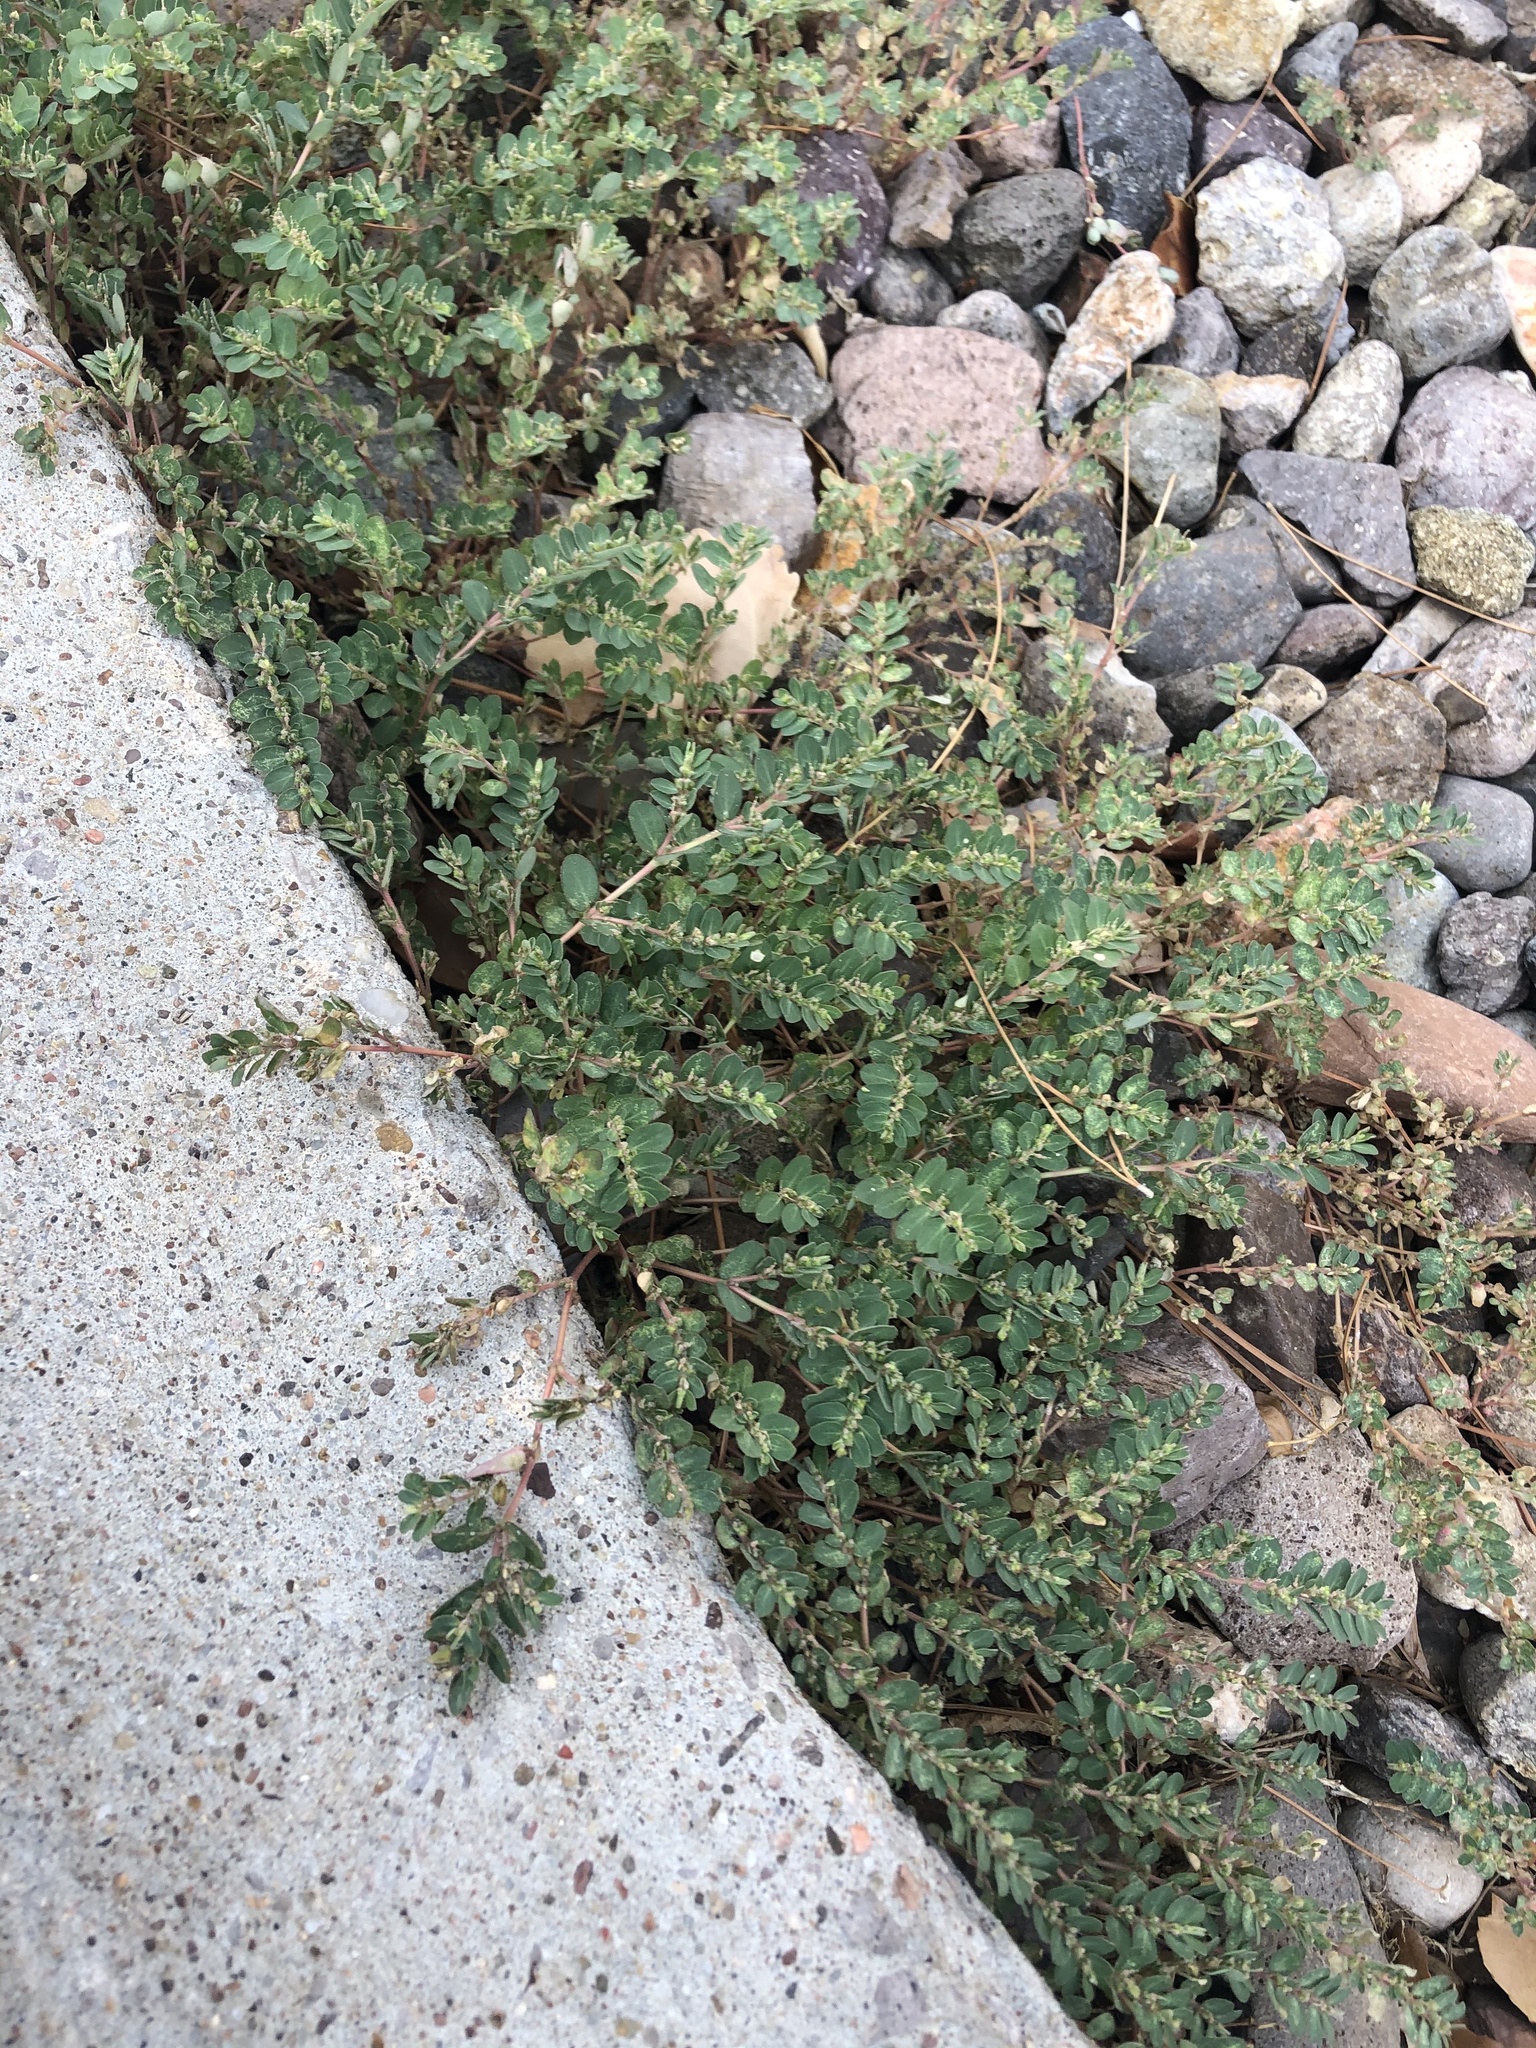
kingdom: Plantae
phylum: Tracheophyta
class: Magnoliopsida
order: Malpighiales
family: Euphorbiaceae
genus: Euphorbia
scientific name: Euphorbia prostrata
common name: Prostrate sandmat
